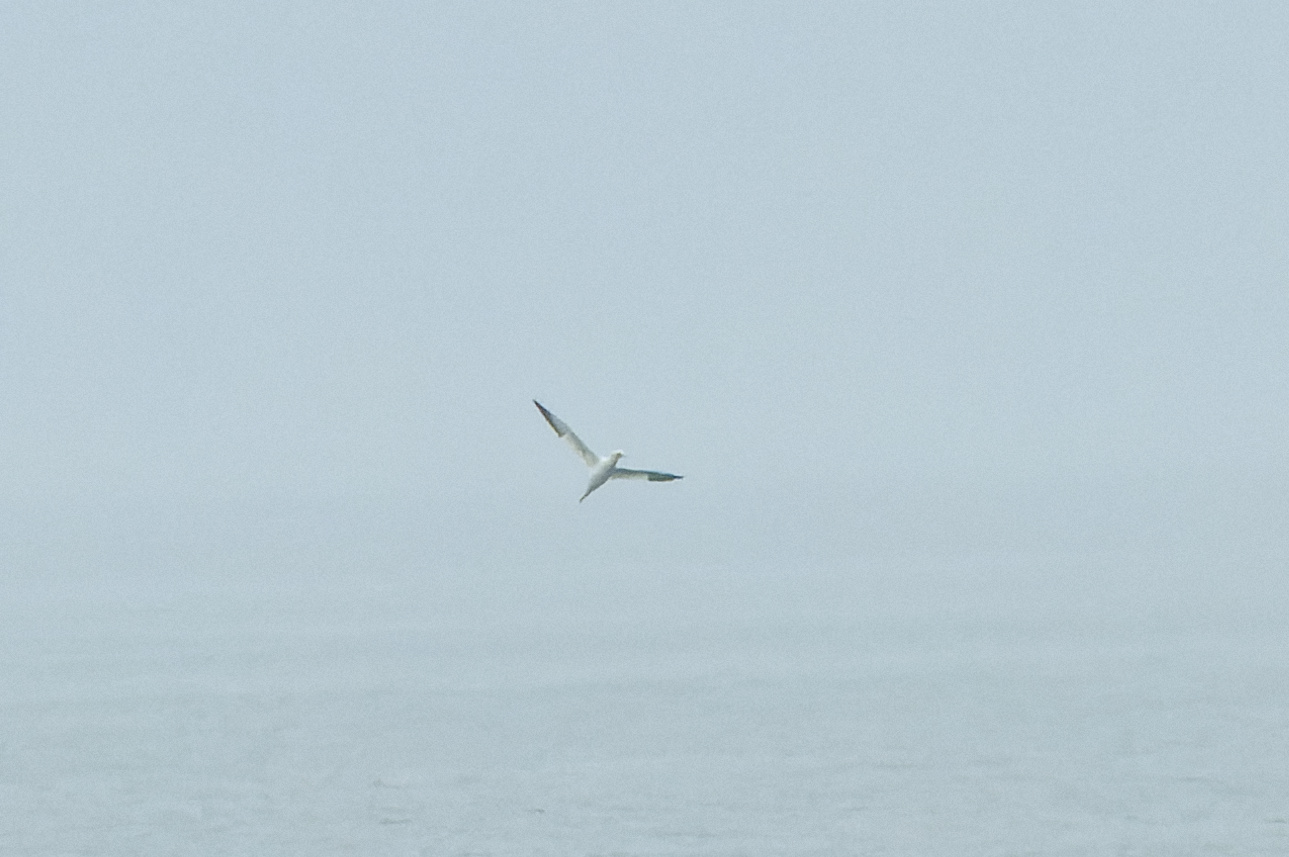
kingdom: Animalia
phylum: Chordata
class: Aves
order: Suliformes
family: Sulidae
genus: Morus
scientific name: Morus bassanus
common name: Northern gannet
